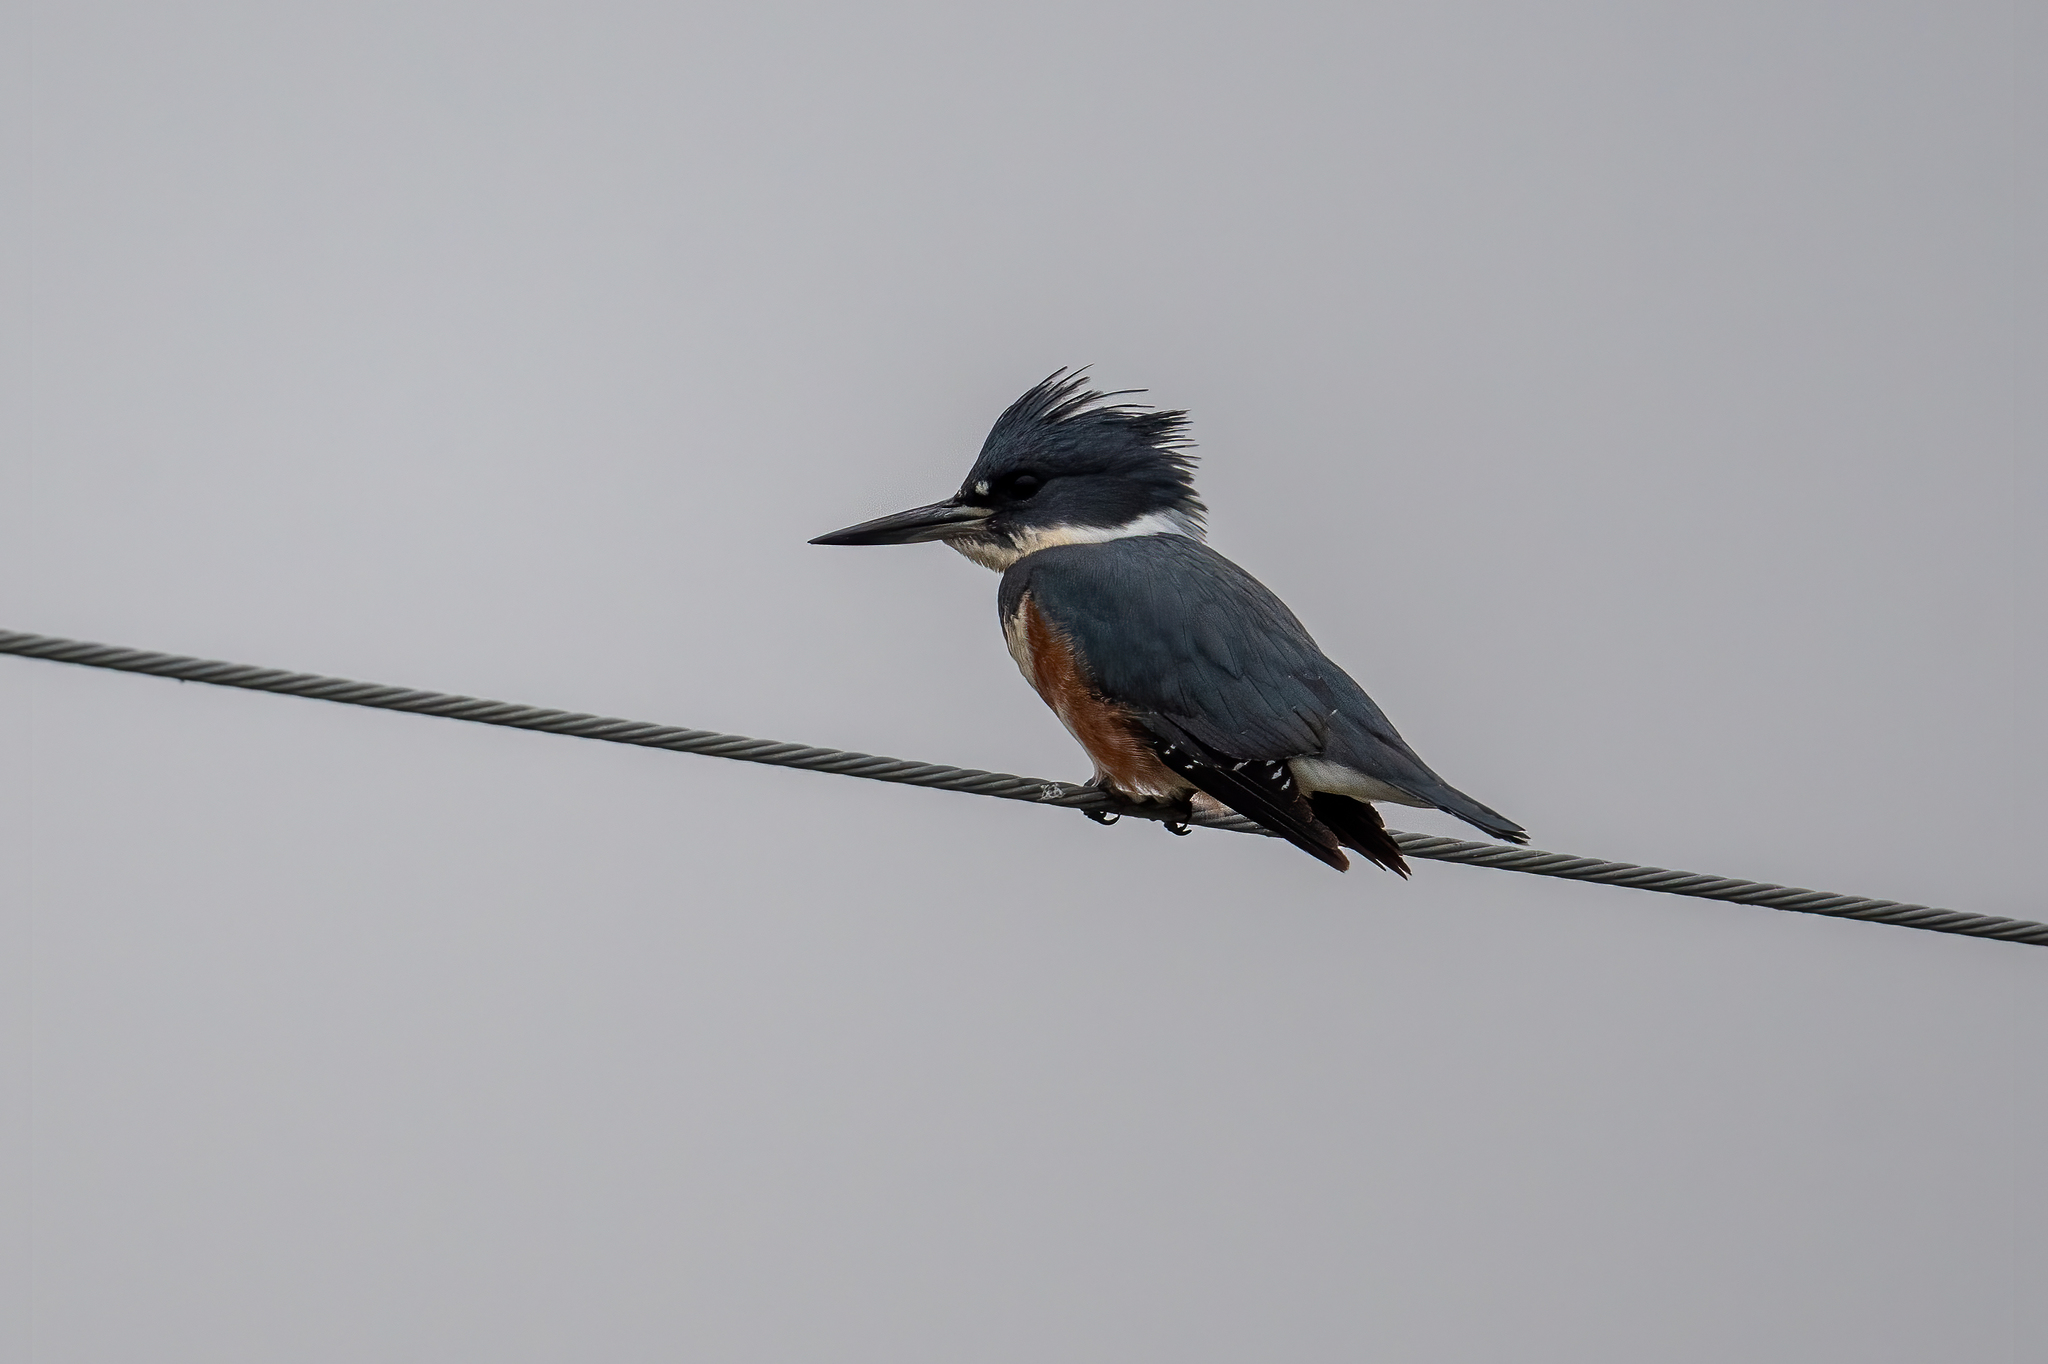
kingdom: Animalia
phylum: Chordata
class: Aves
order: Coraciiformes
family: Alcedinidae
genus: Megaceryle
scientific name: Megaceryle alcyon
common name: Belted kingfisher
